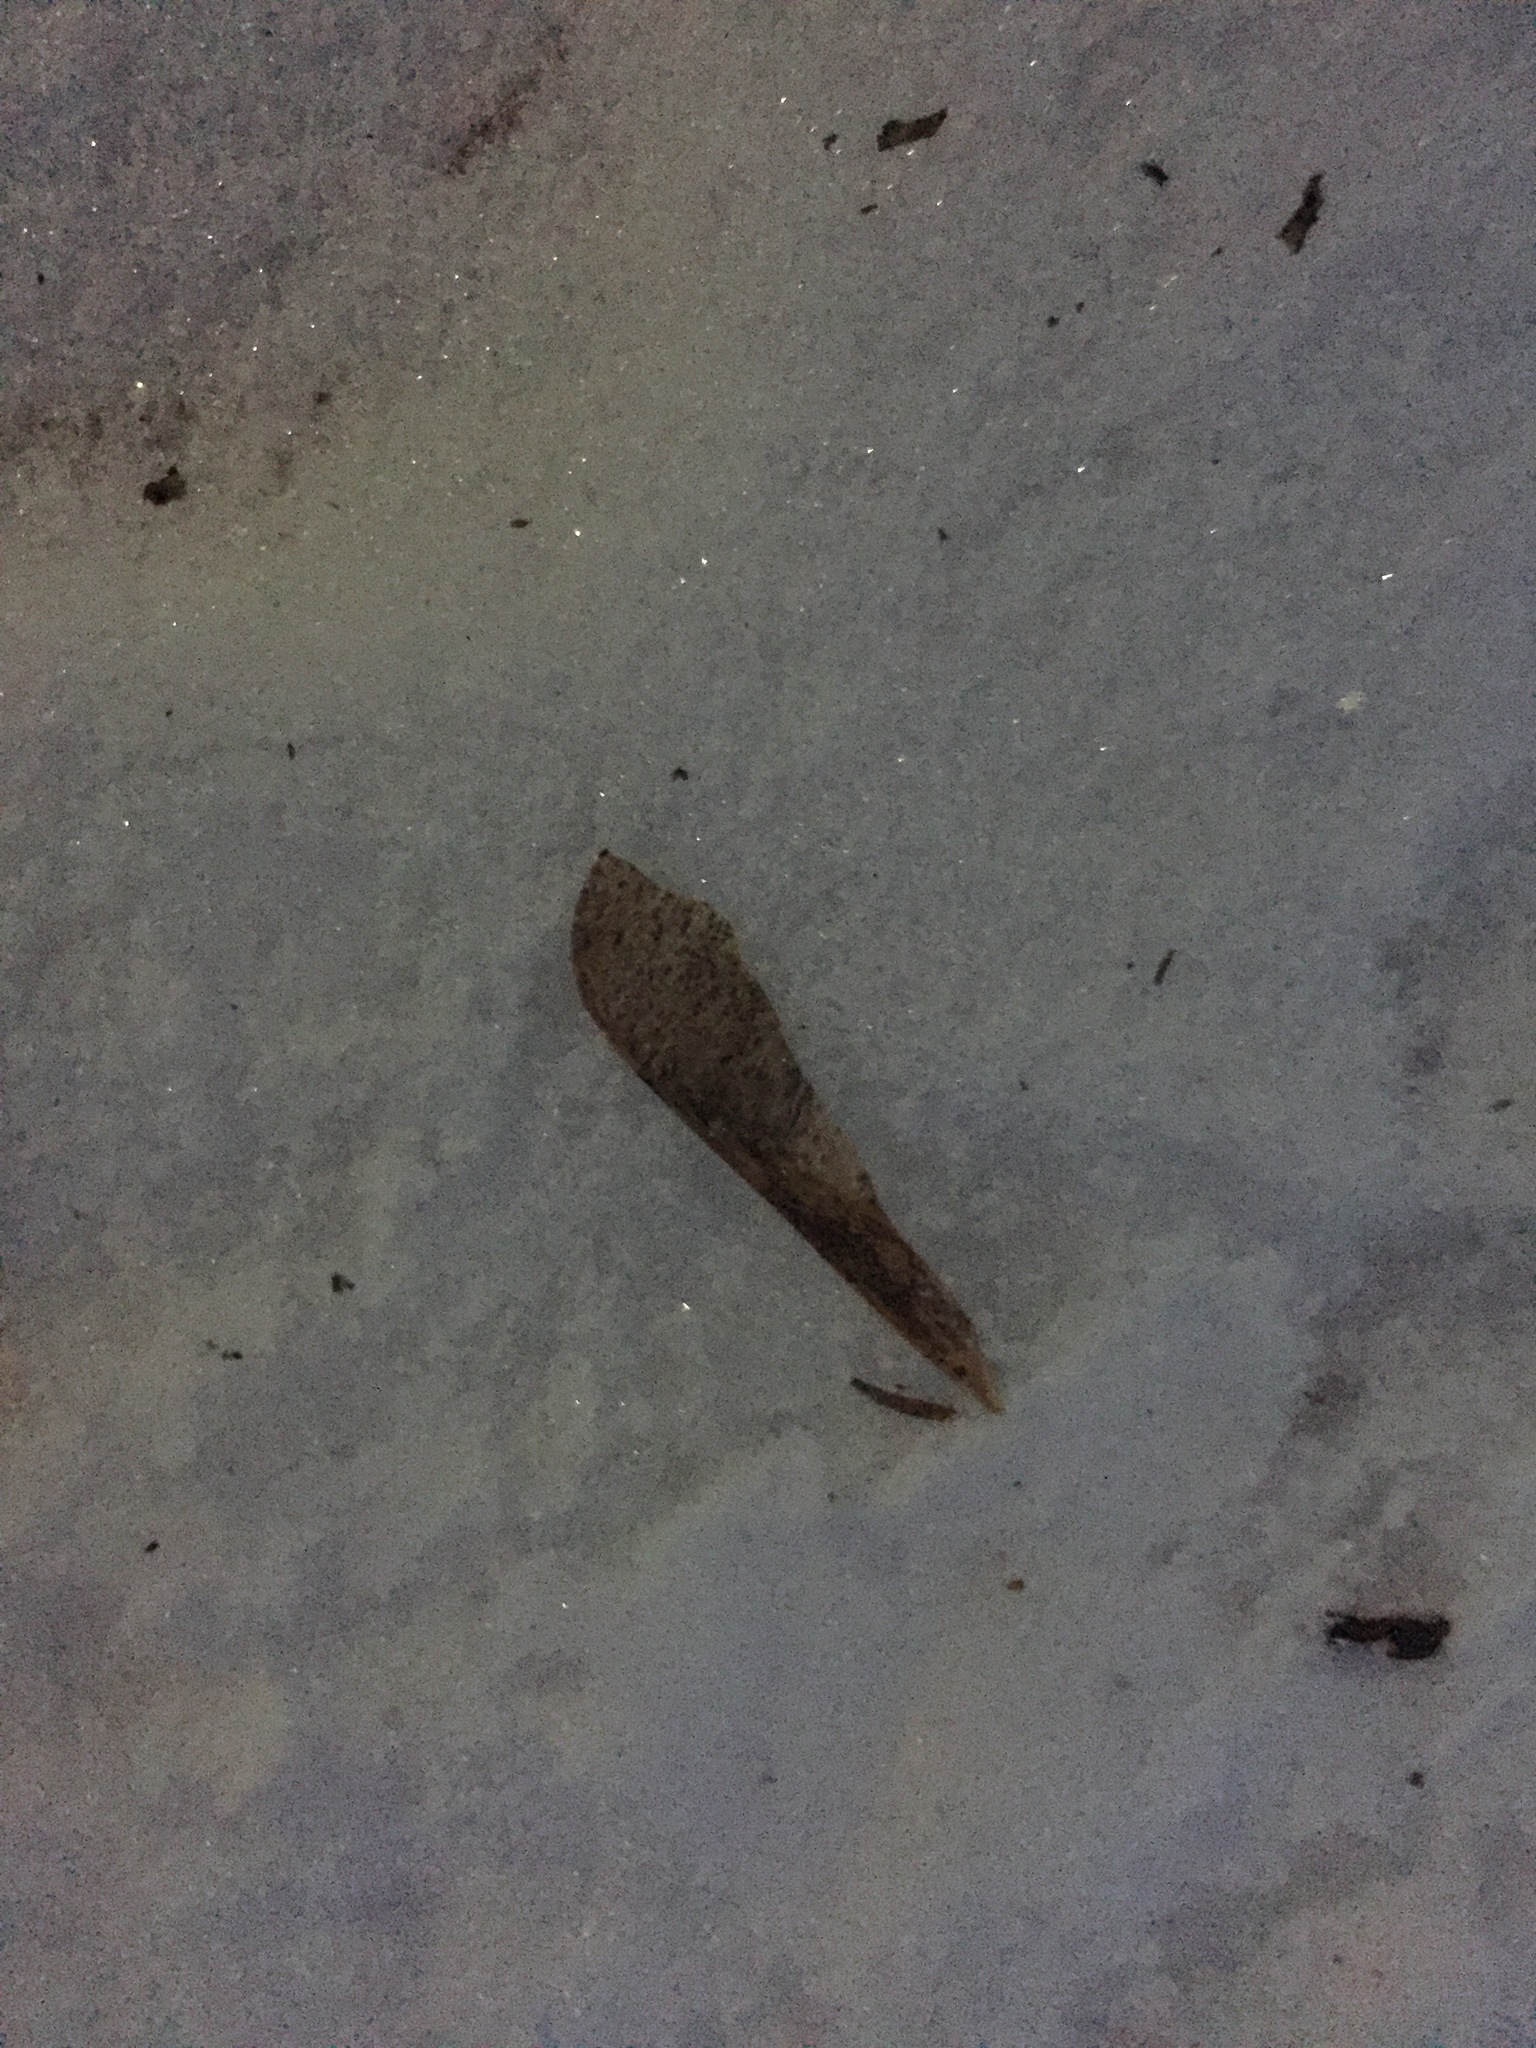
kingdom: Plantae
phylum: Tracheophyta
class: Magnoliopsida
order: Sapindales
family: Sapindaceae
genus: Acer
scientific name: Acer negundo
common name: Ashleaf maple
